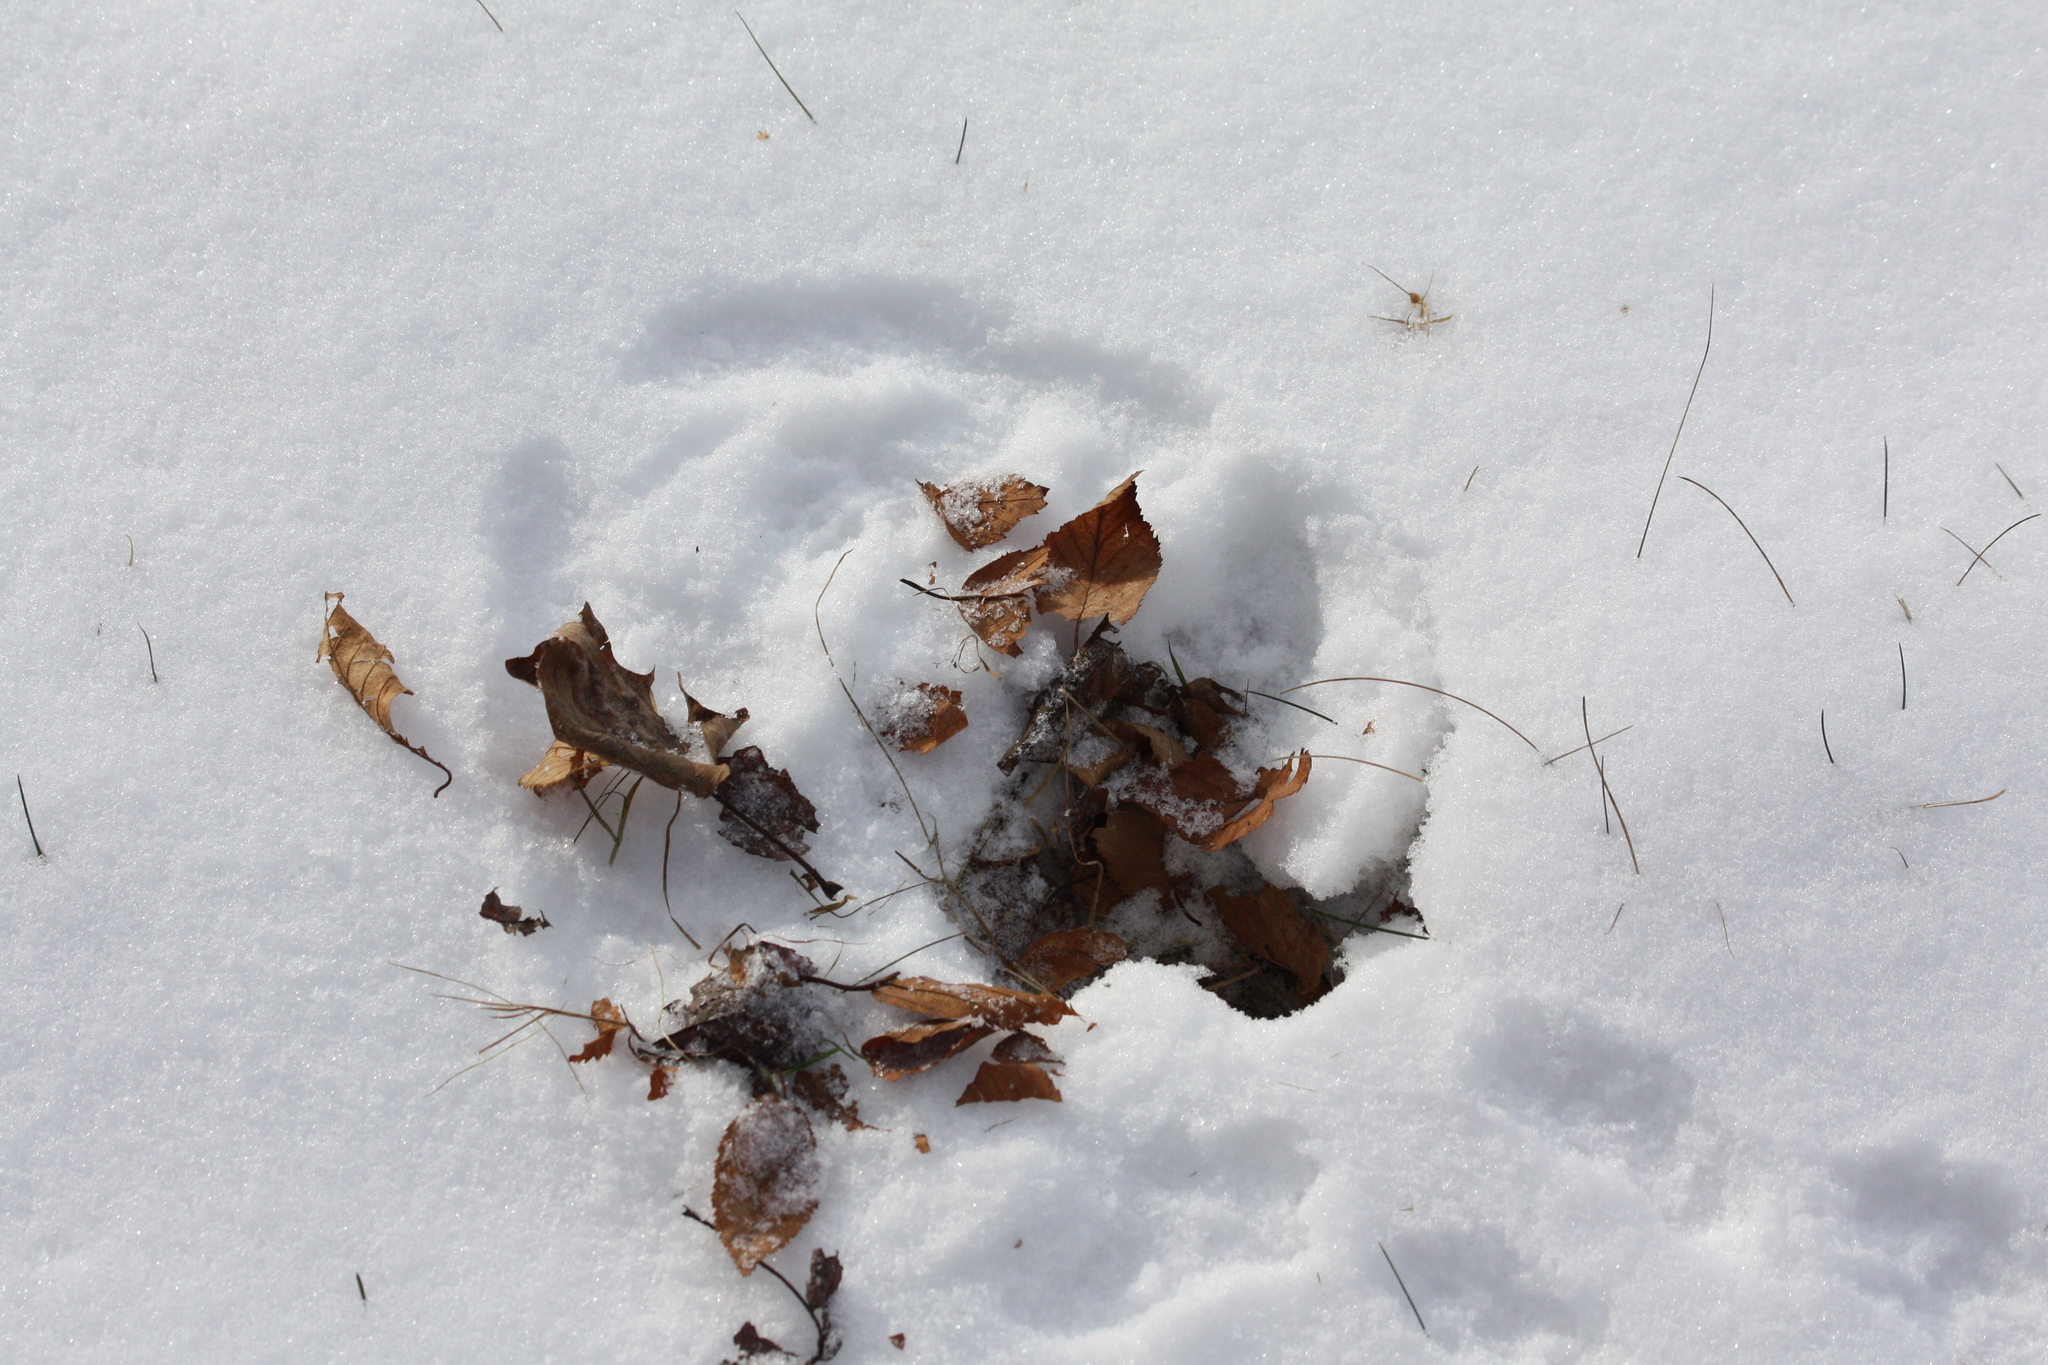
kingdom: Animalia
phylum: Chordata
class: Mammalia
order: Rodentia
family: Sciuridae
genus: Sciurus
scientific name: Sciurus carolinensis
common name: Eastern gray squirrel
